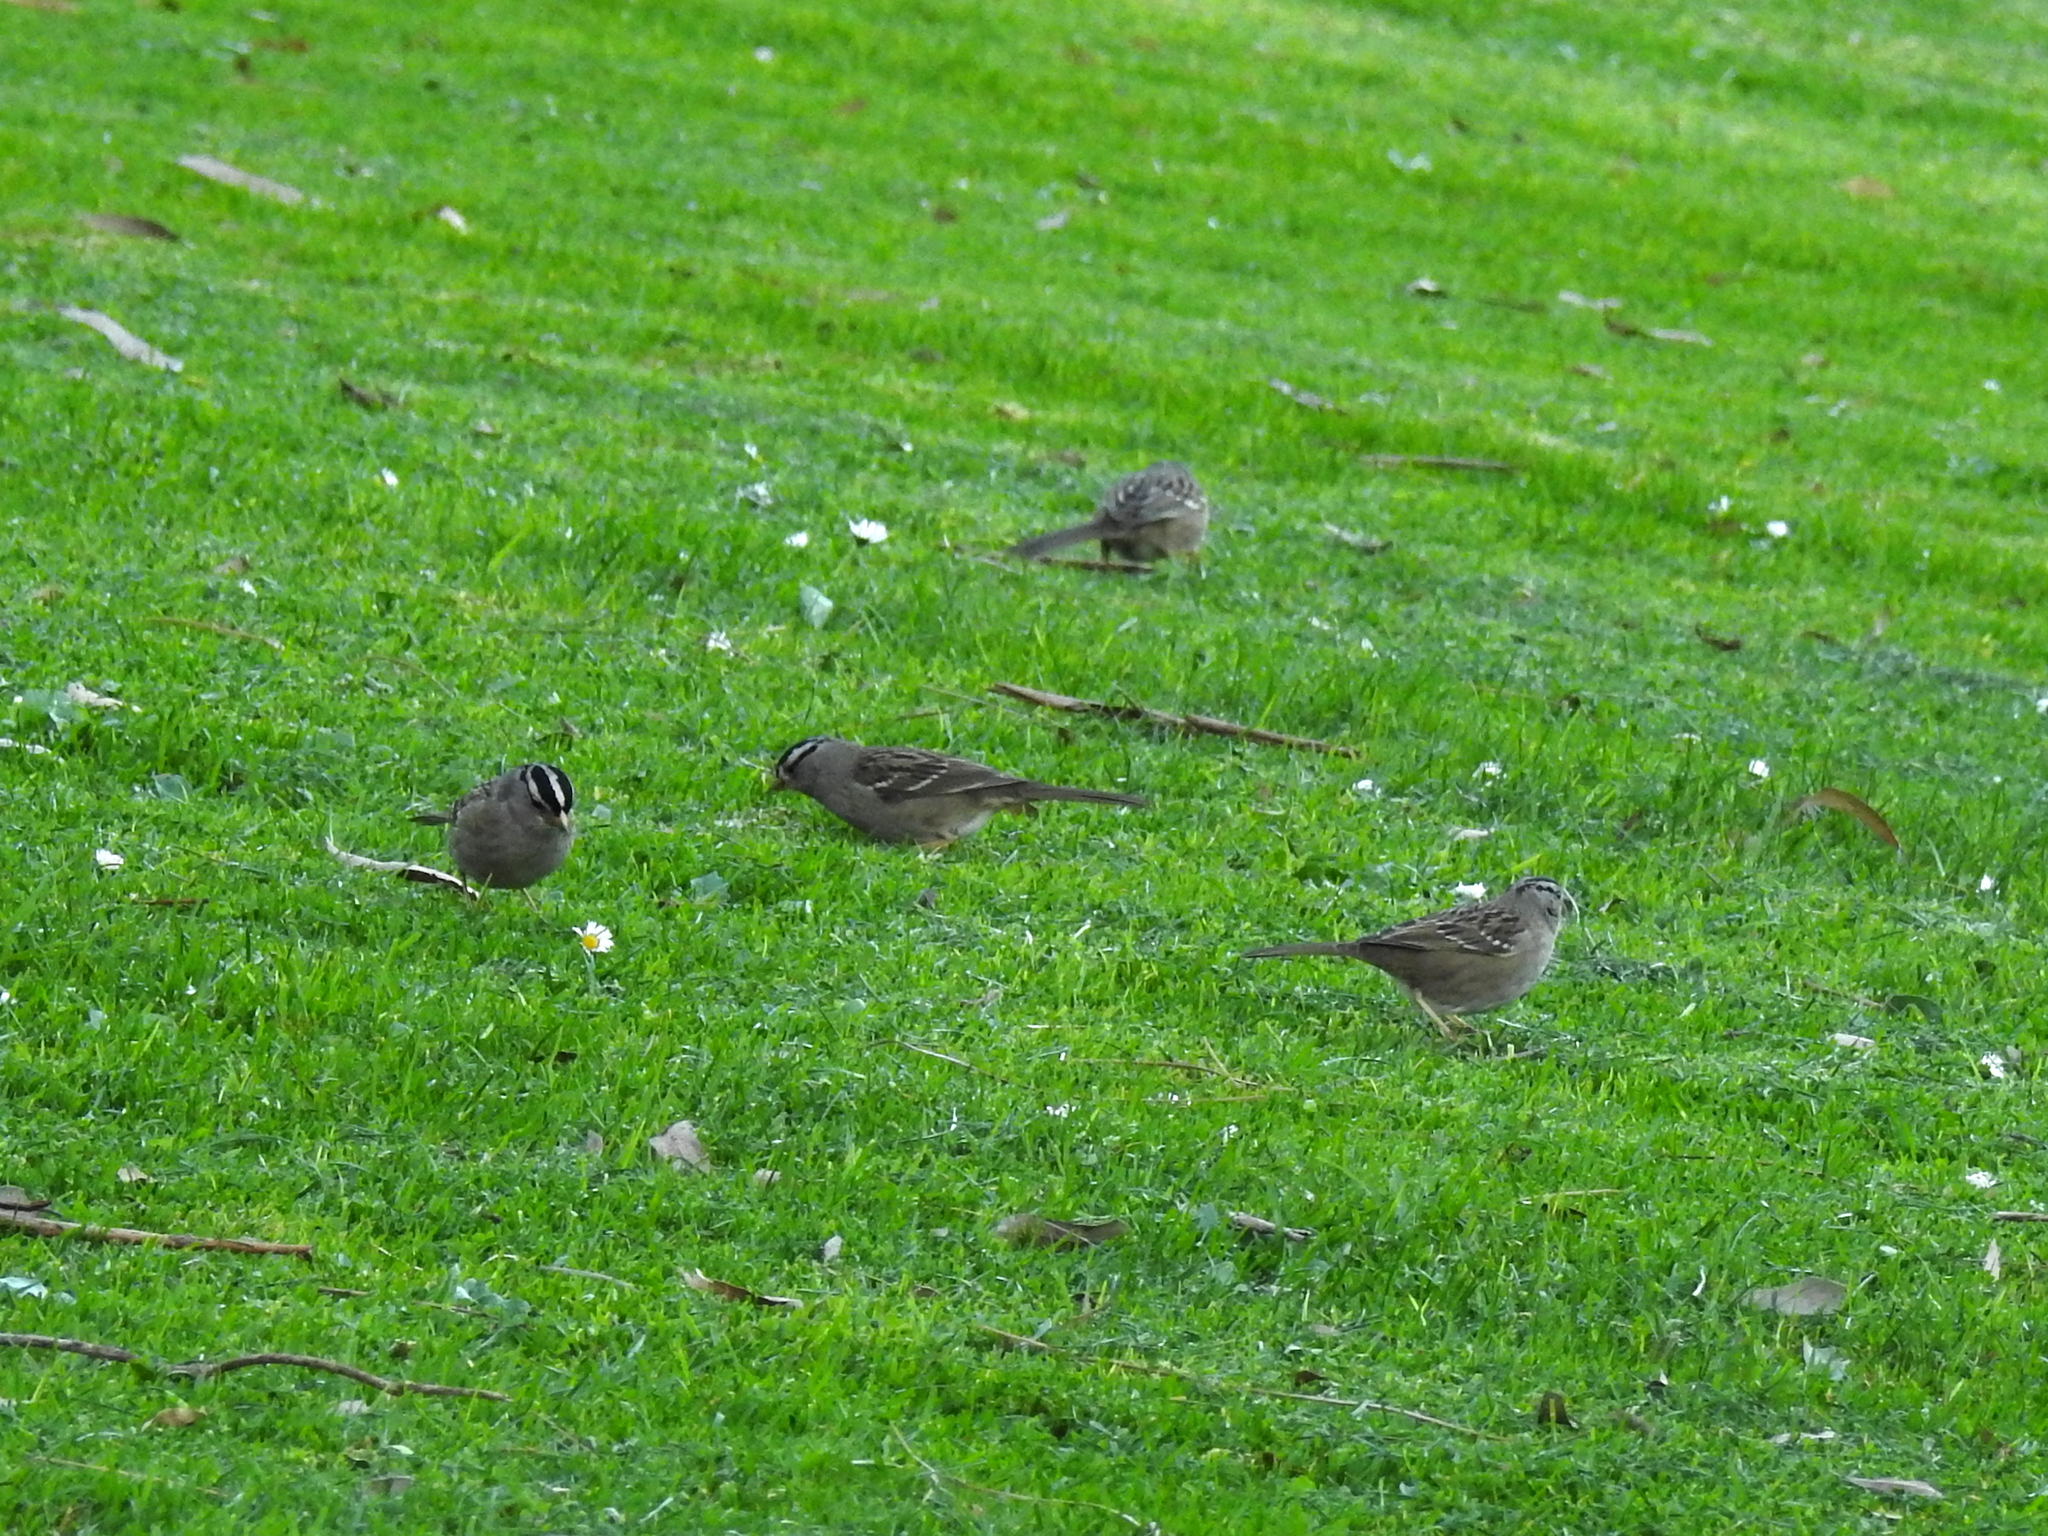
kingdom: Animalia
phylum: Chordata
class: Aves
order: Passeriformes
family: Passerellidae
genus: Zonotrichia
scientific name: Zonotrichia leucophrys
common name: White-crowned sparrow
